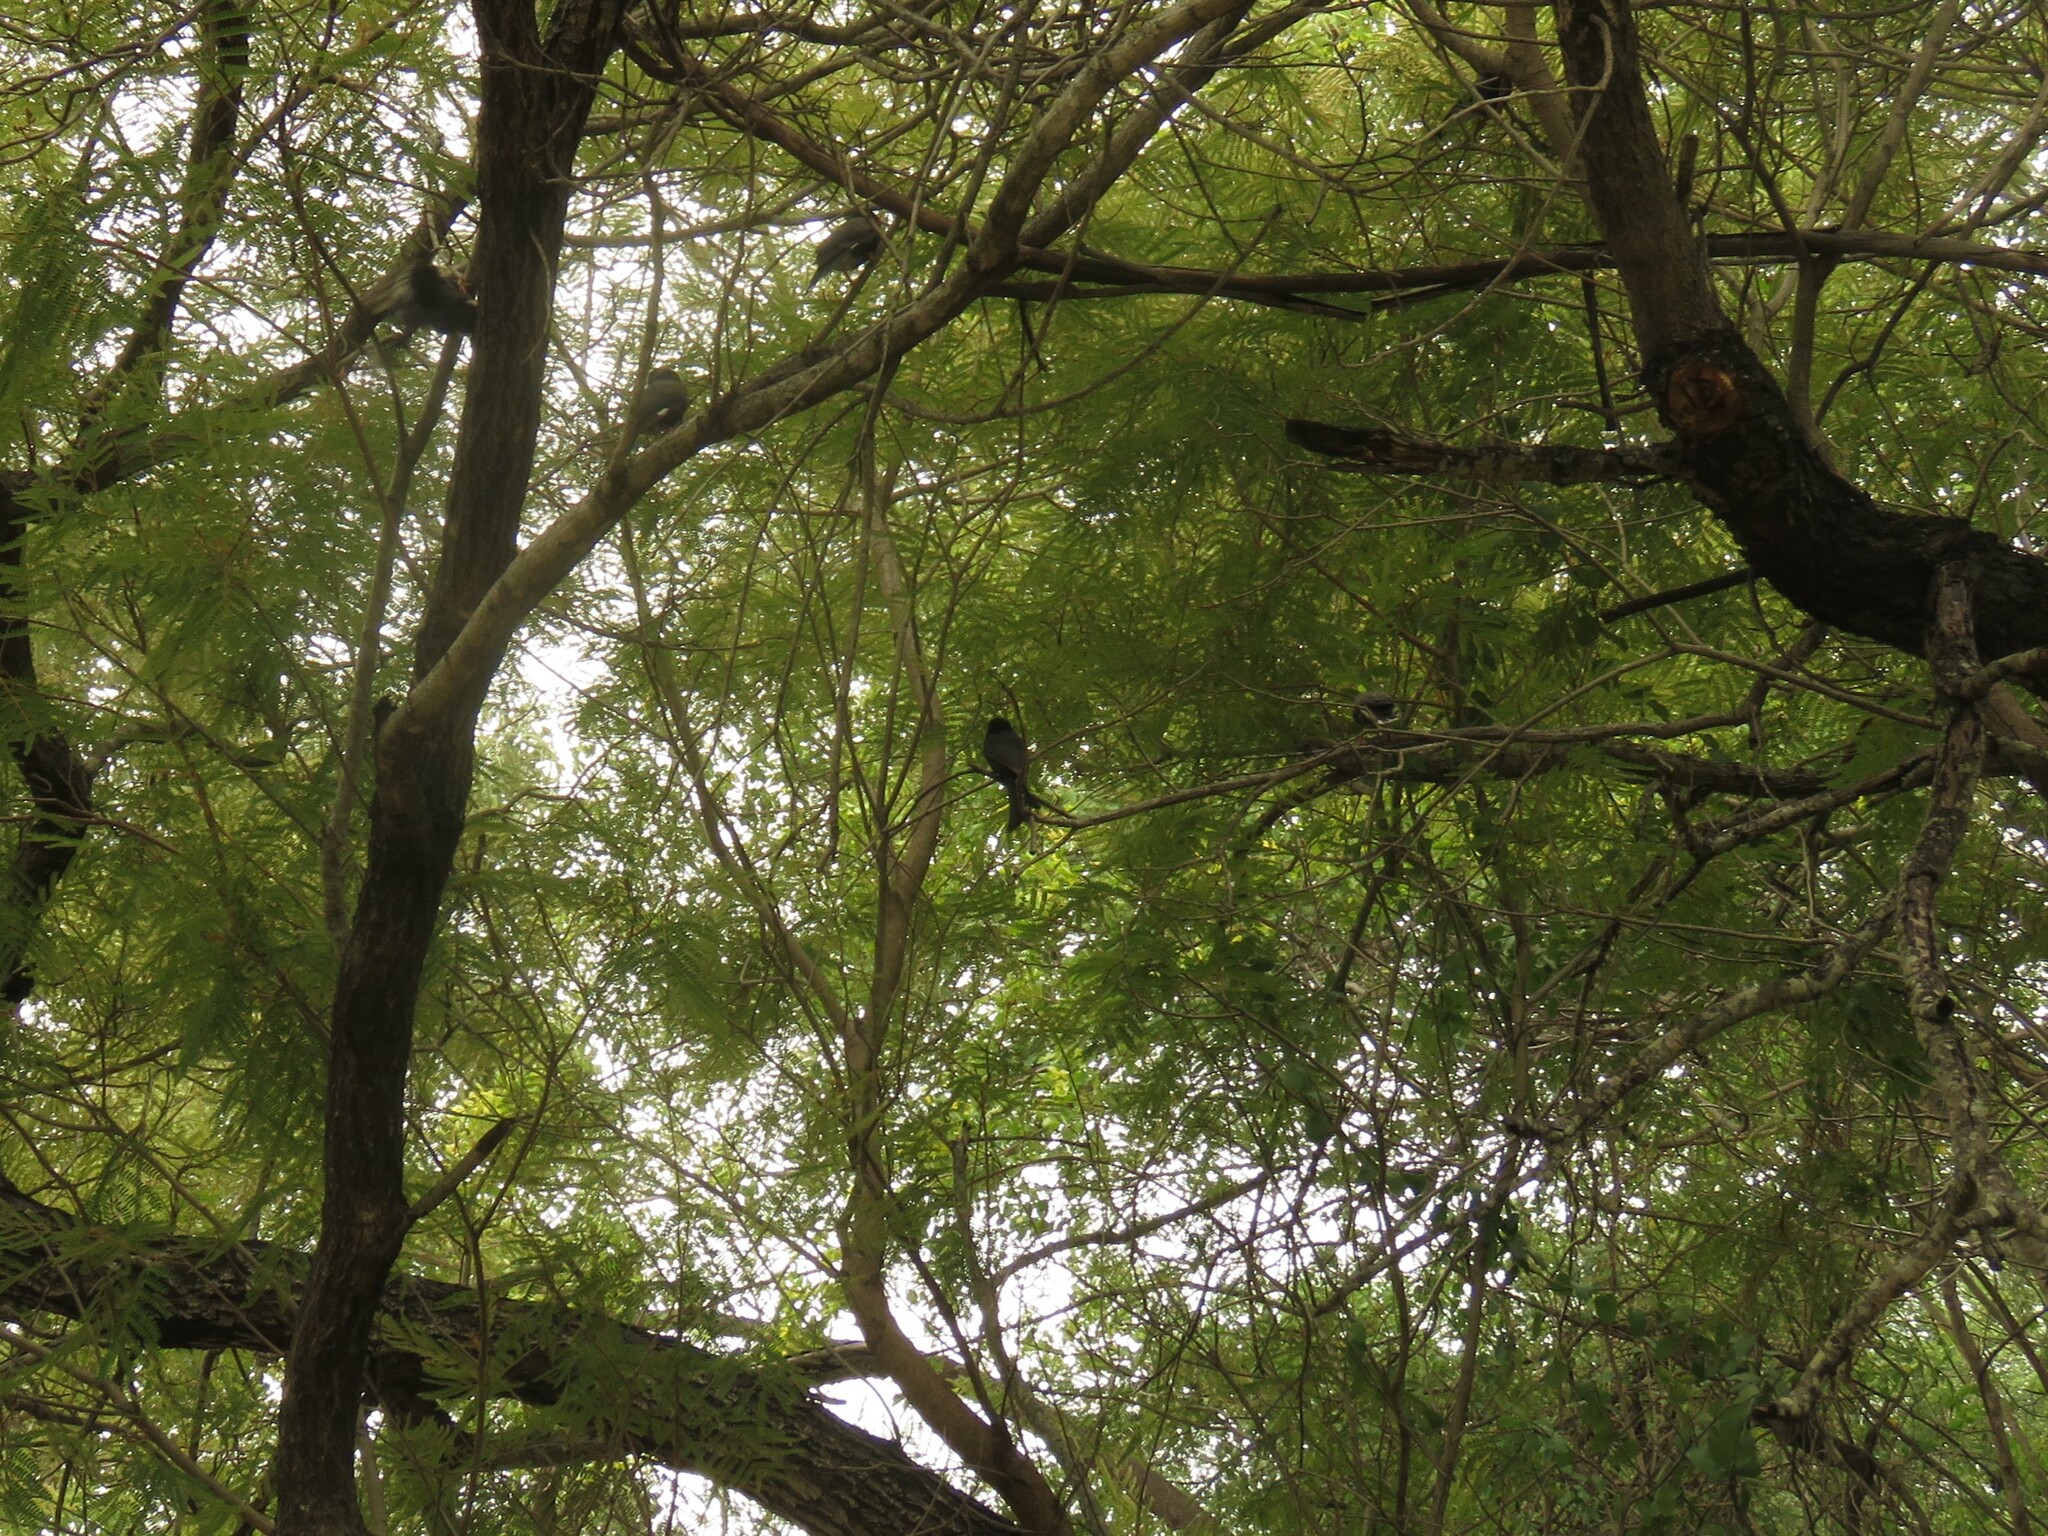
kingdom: Animalia
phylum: Chordata
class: Aves
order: Passeriformes
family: Dicruridae
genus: Dicrurus
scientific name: Dicrurus adsimilis
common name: Fork-tailed drongo
